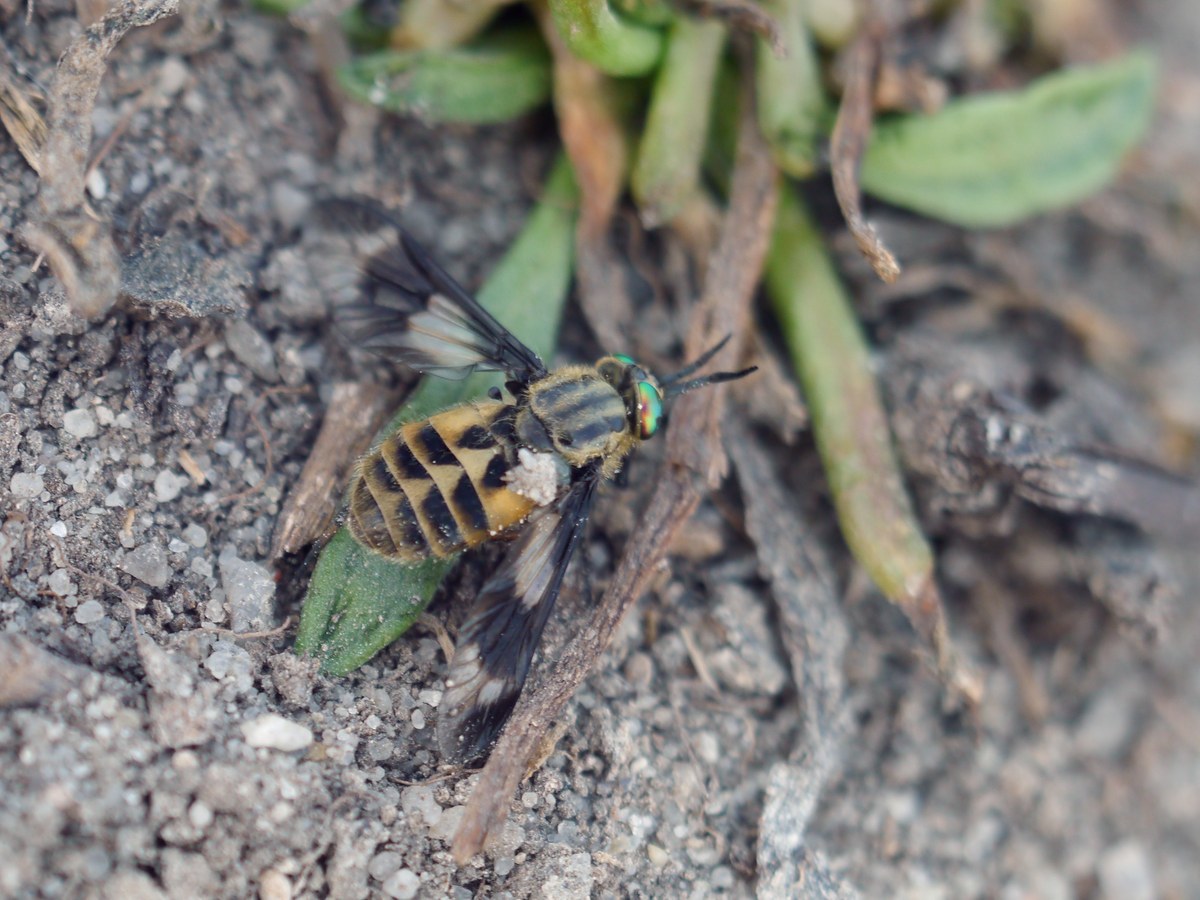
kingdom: Animalia
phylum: Arthropoda
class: Insecta
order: Diptera
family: Tabanidae
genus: Chrysops
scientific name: Chrysops relictus
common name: Twin-lobed deerfly
